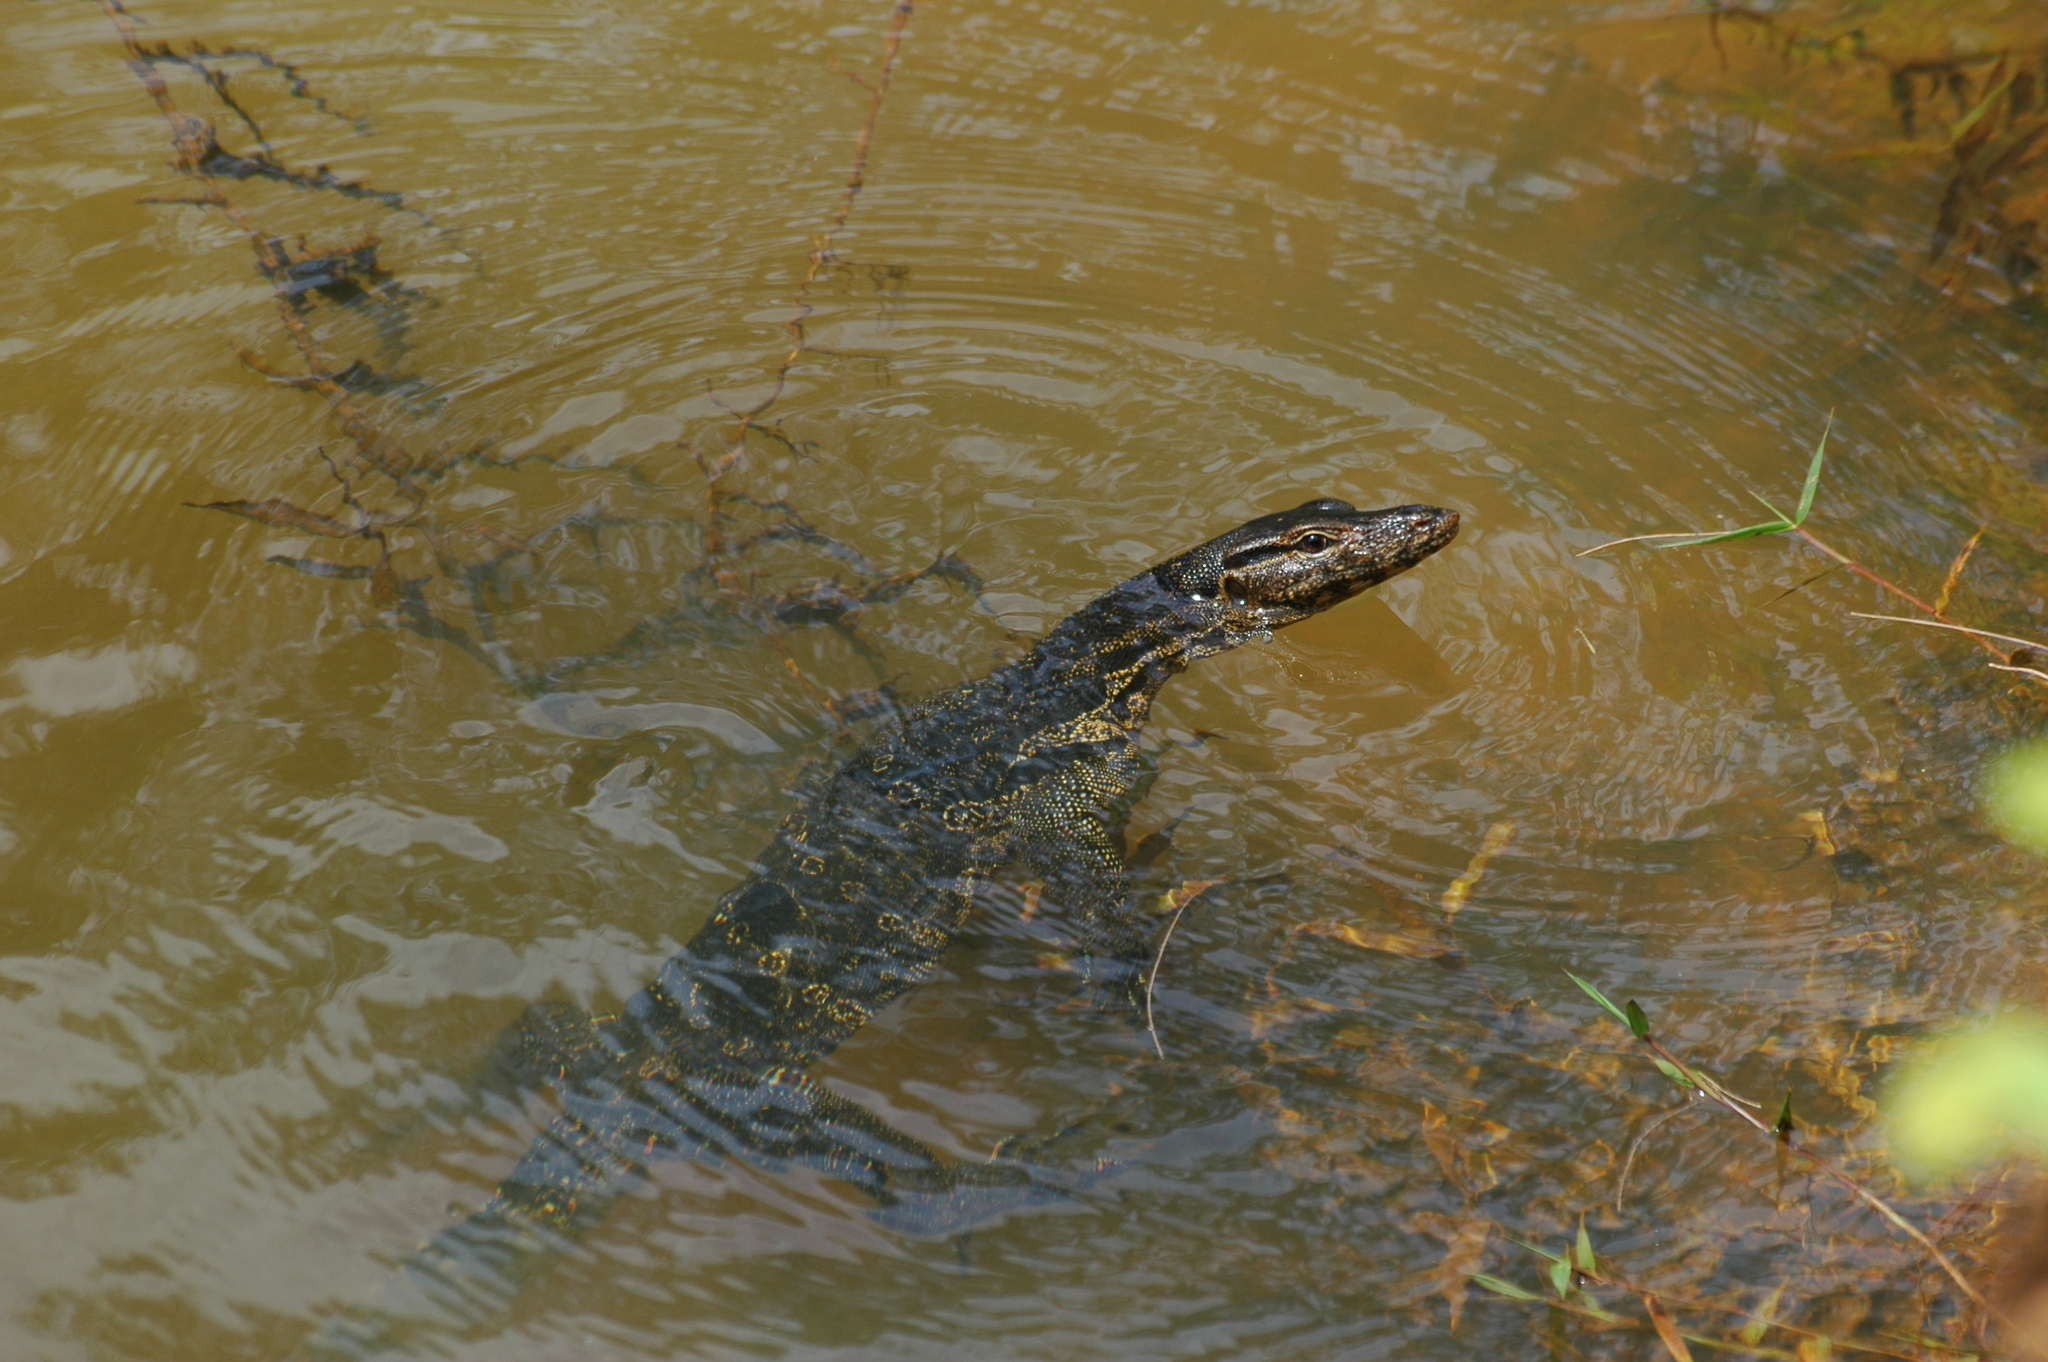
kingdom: Animalia
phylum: Chordata
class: Squamata
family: Varanidae
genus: Varanus
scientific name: Varanus salvator
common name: Common water monitor
